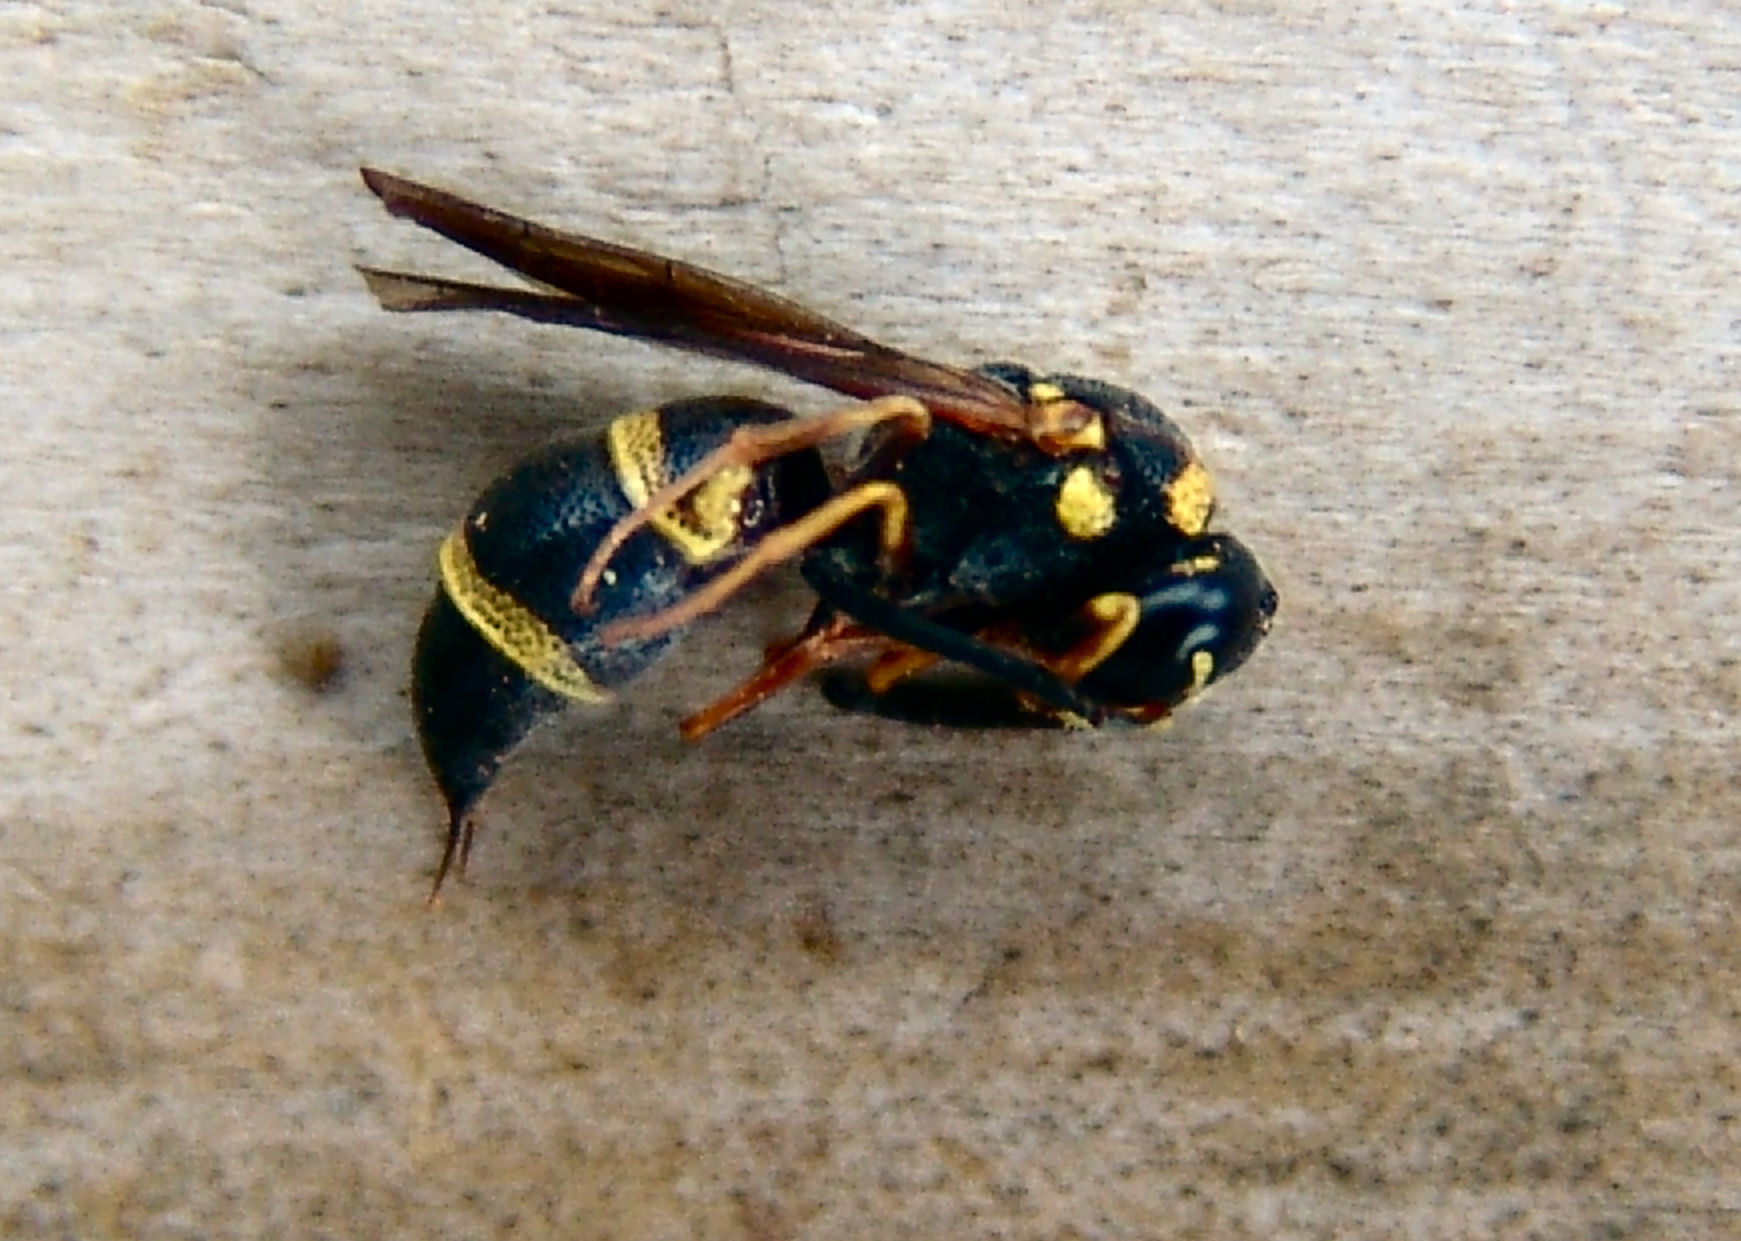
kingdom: Animalia
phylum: Arthropoda
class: Insecta
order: Hymenoptera
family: Eumenidae
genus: Parancistrocerus
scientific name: Parancistrocerus fulvipes
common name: Potter wasp
